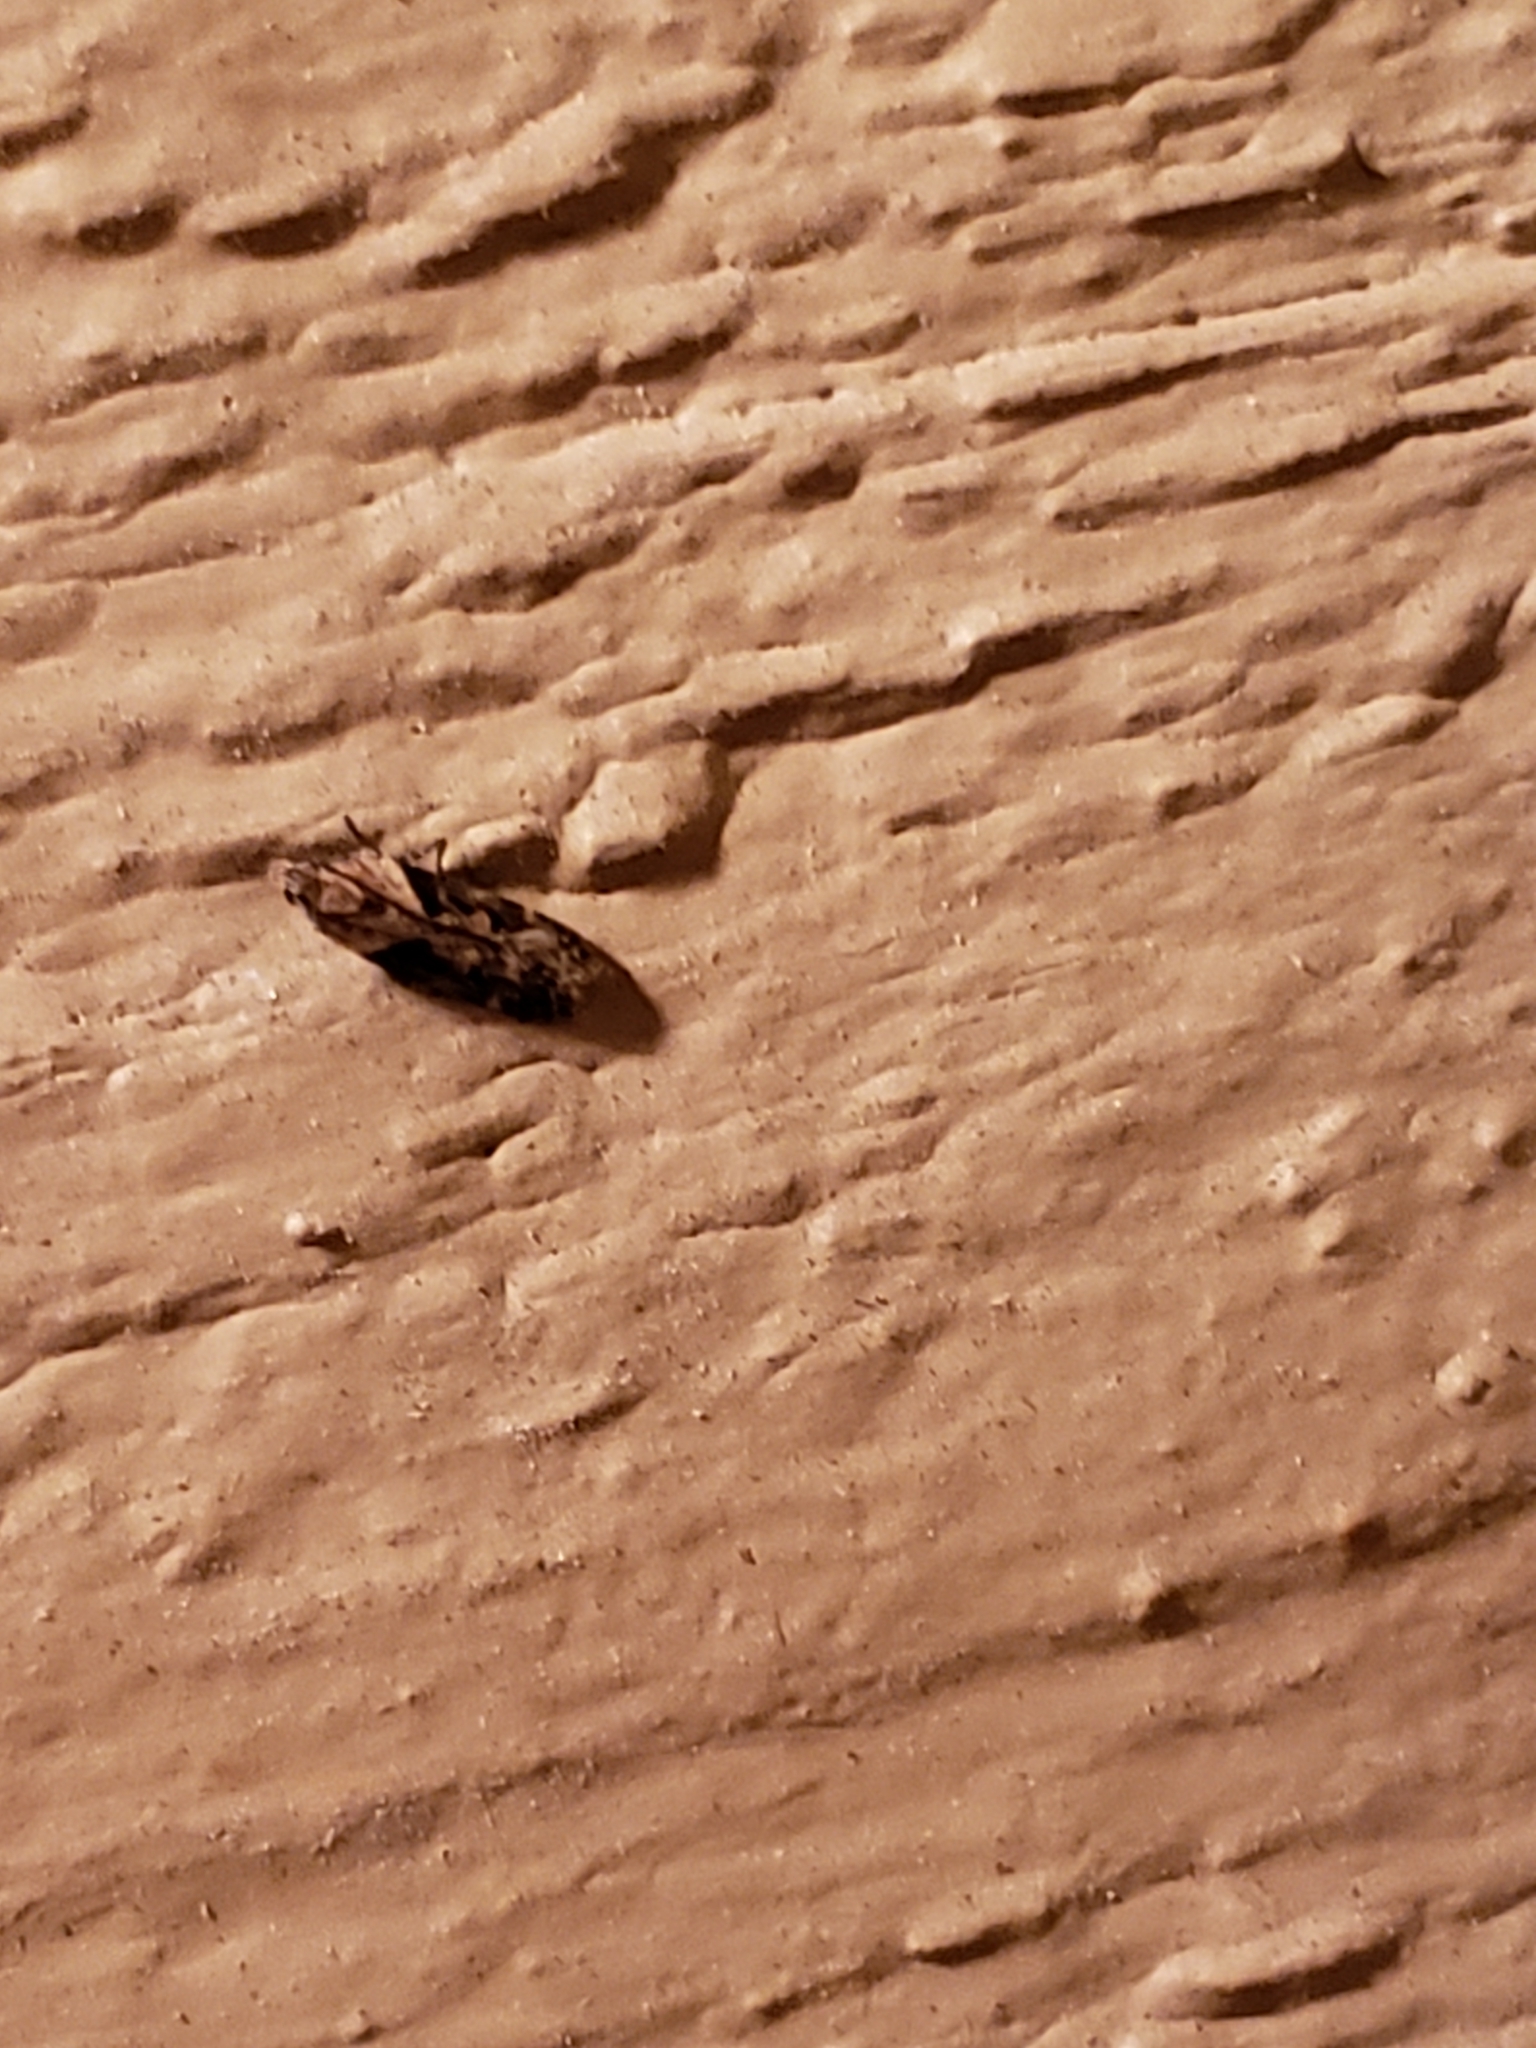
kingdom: Animalia
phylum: Arthropoda
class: Insecta
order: Lepidoptera
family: Gelechiidae
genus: Chionodes
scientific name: Chionodes mediofuscella
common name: Black-smudged chionodes moth
